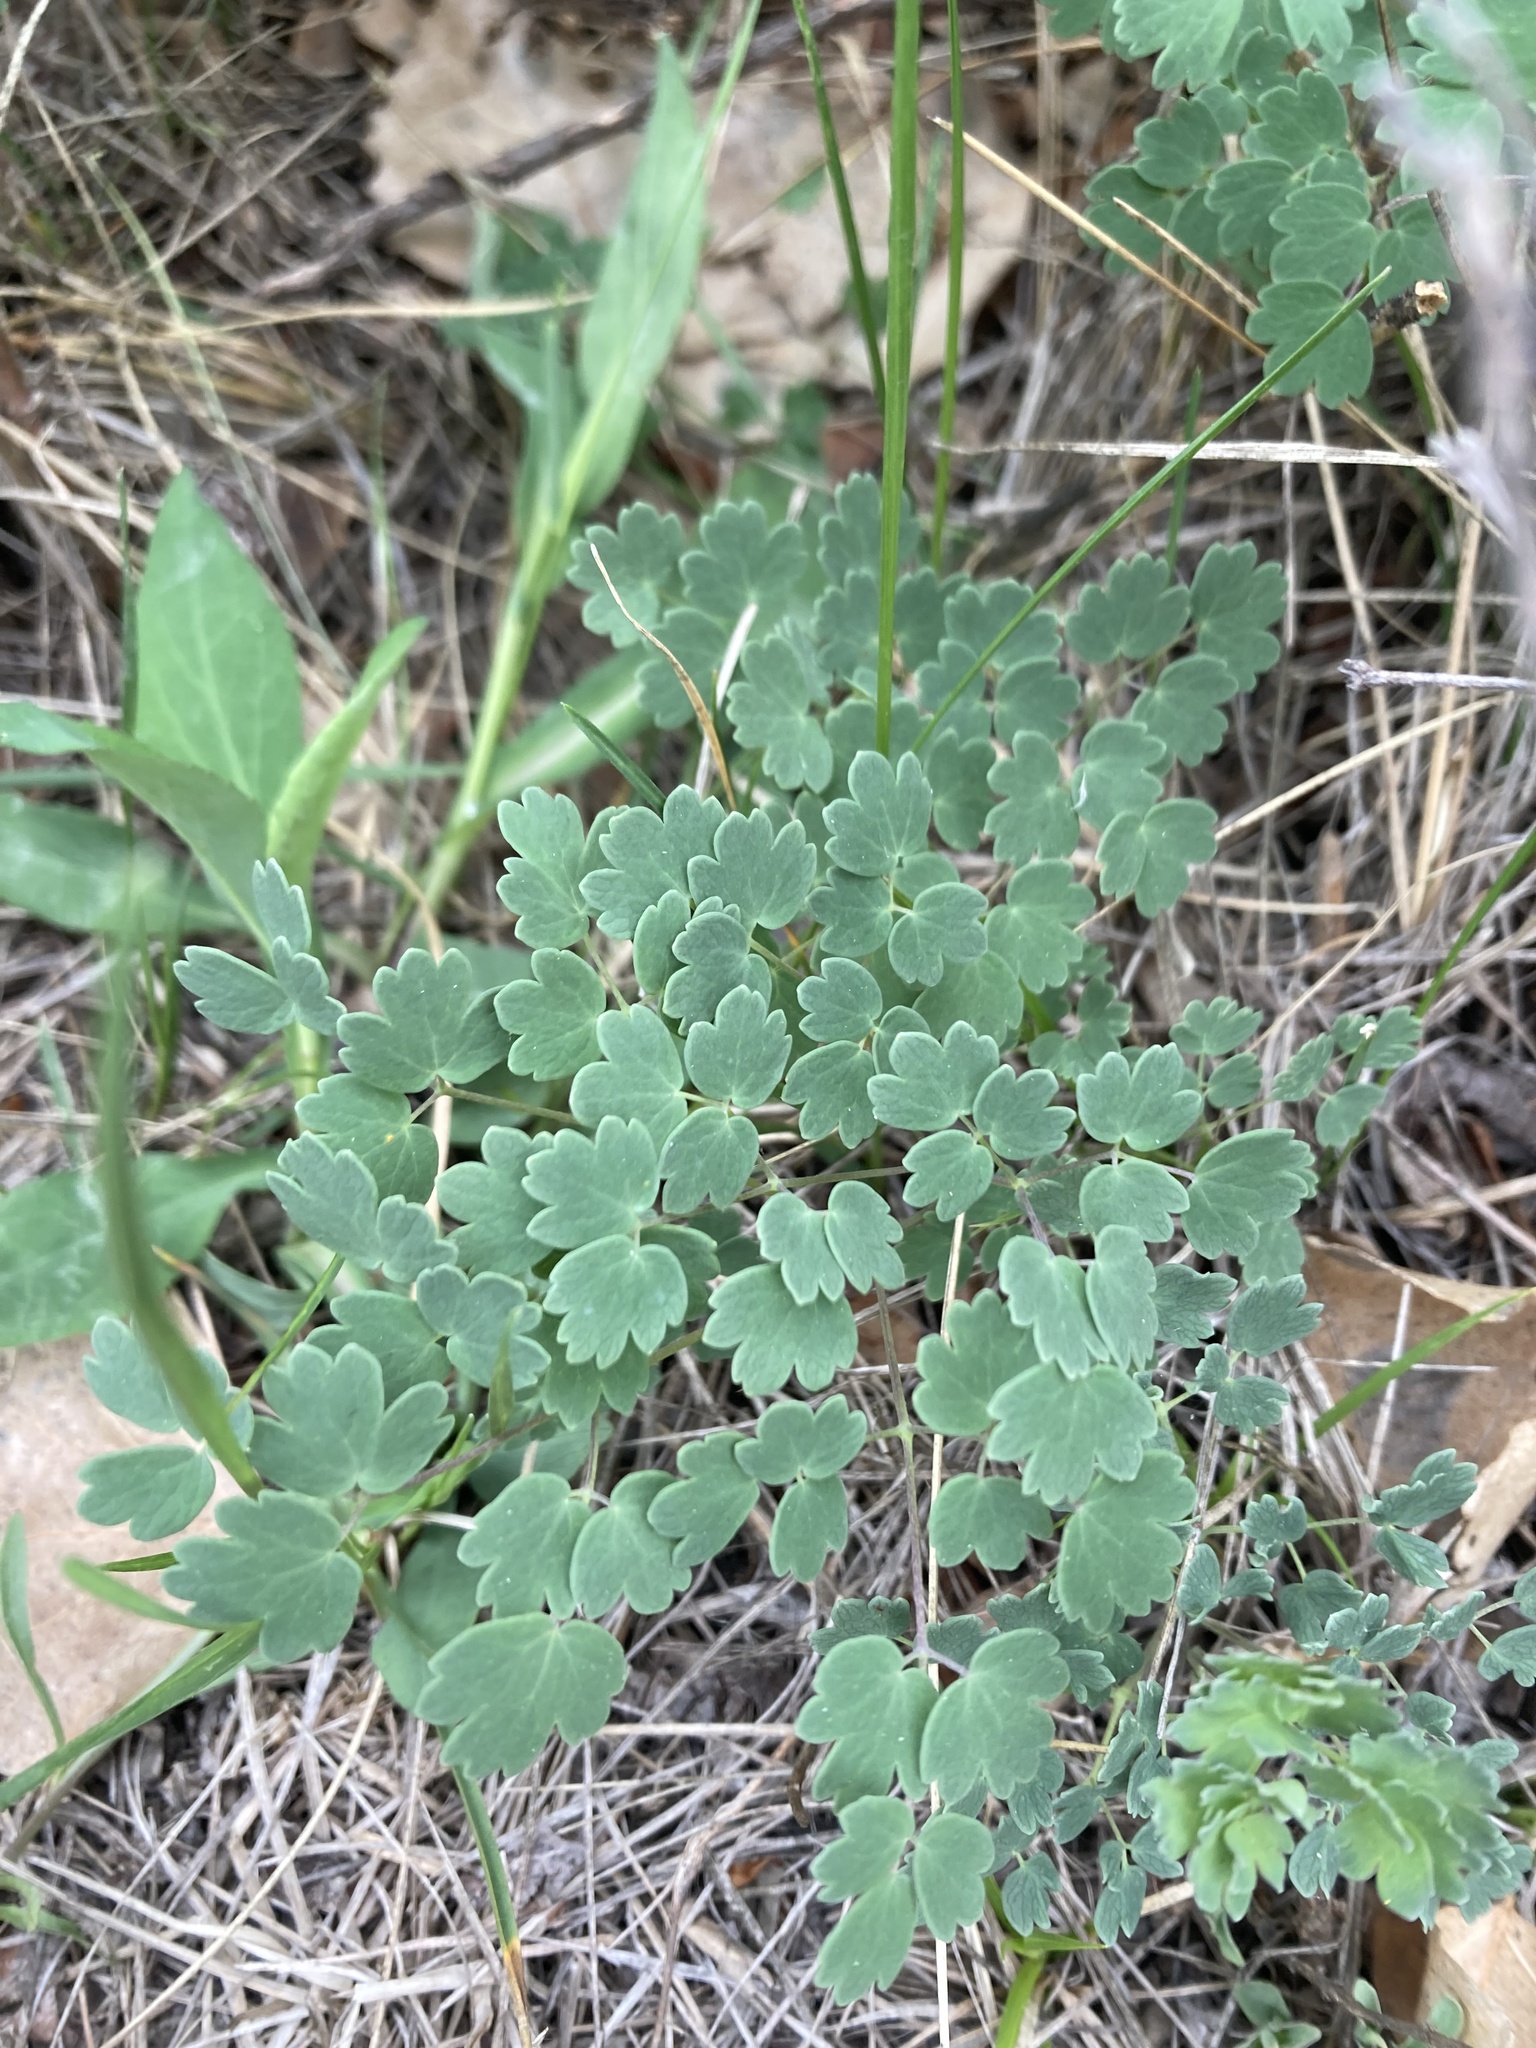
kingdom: Plantae
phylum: Tracheophyta
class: Magnoliopsida
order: Ranunculales
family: Ranunculaceae
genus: Thalictrum
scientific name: Thalictrum venulosum
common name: Early meadow-rue
